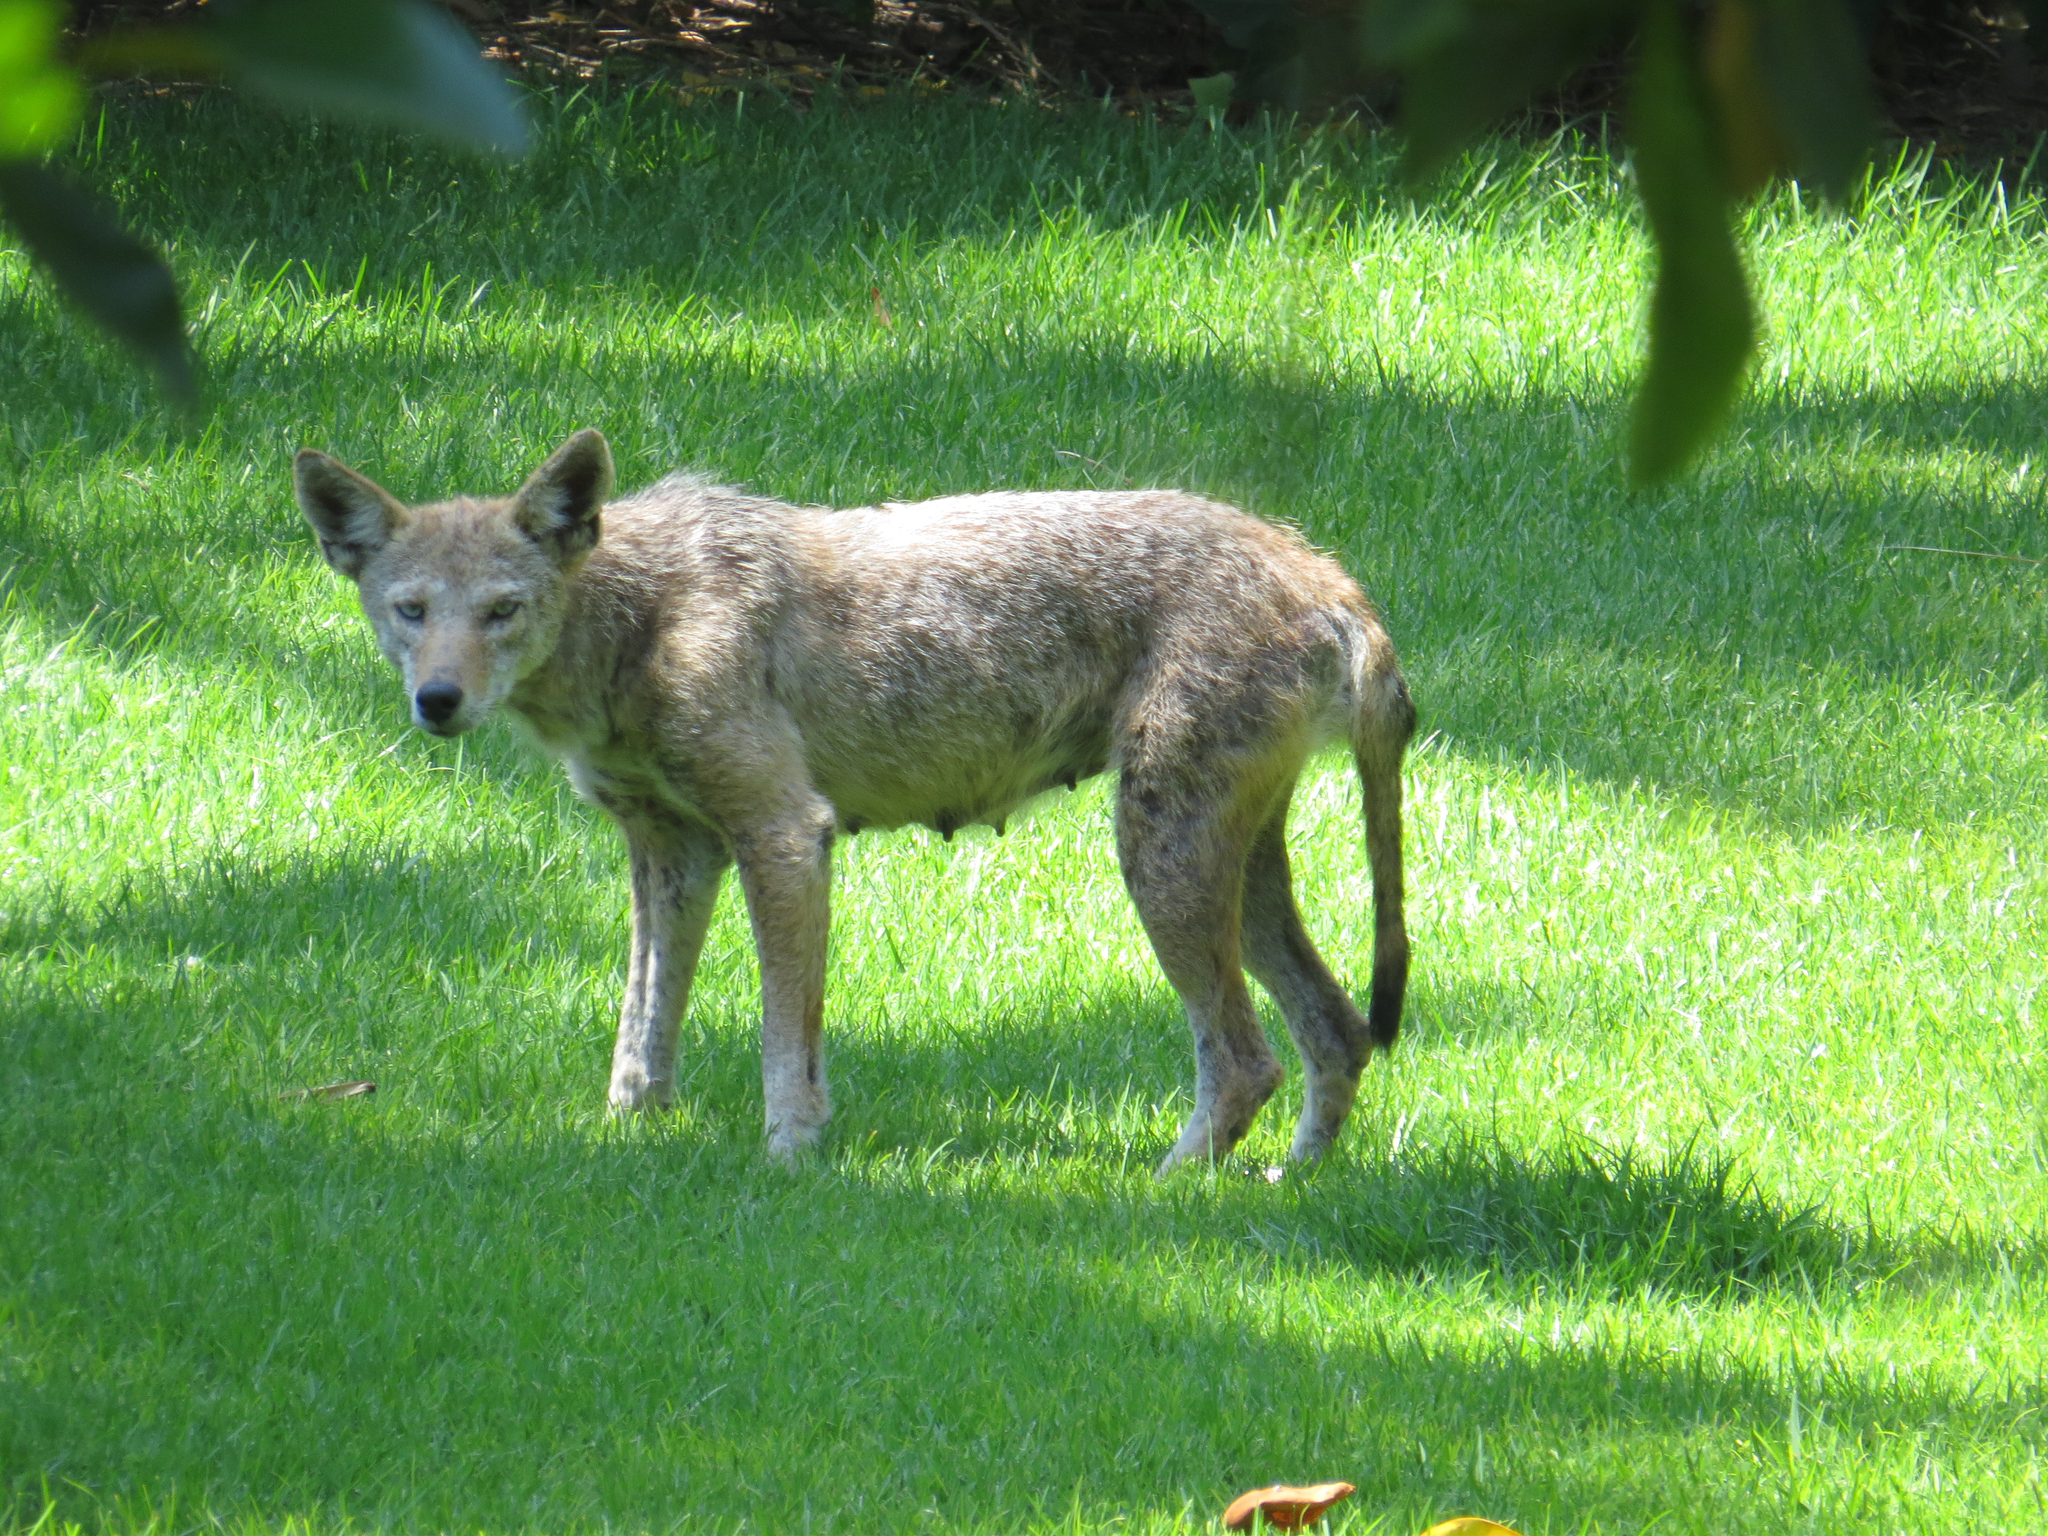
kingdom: Animalia
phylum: Chordata
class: Mammalia
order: Carnivora
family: Canidae
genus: Canis
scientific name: Canis latrans
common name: Coyote
